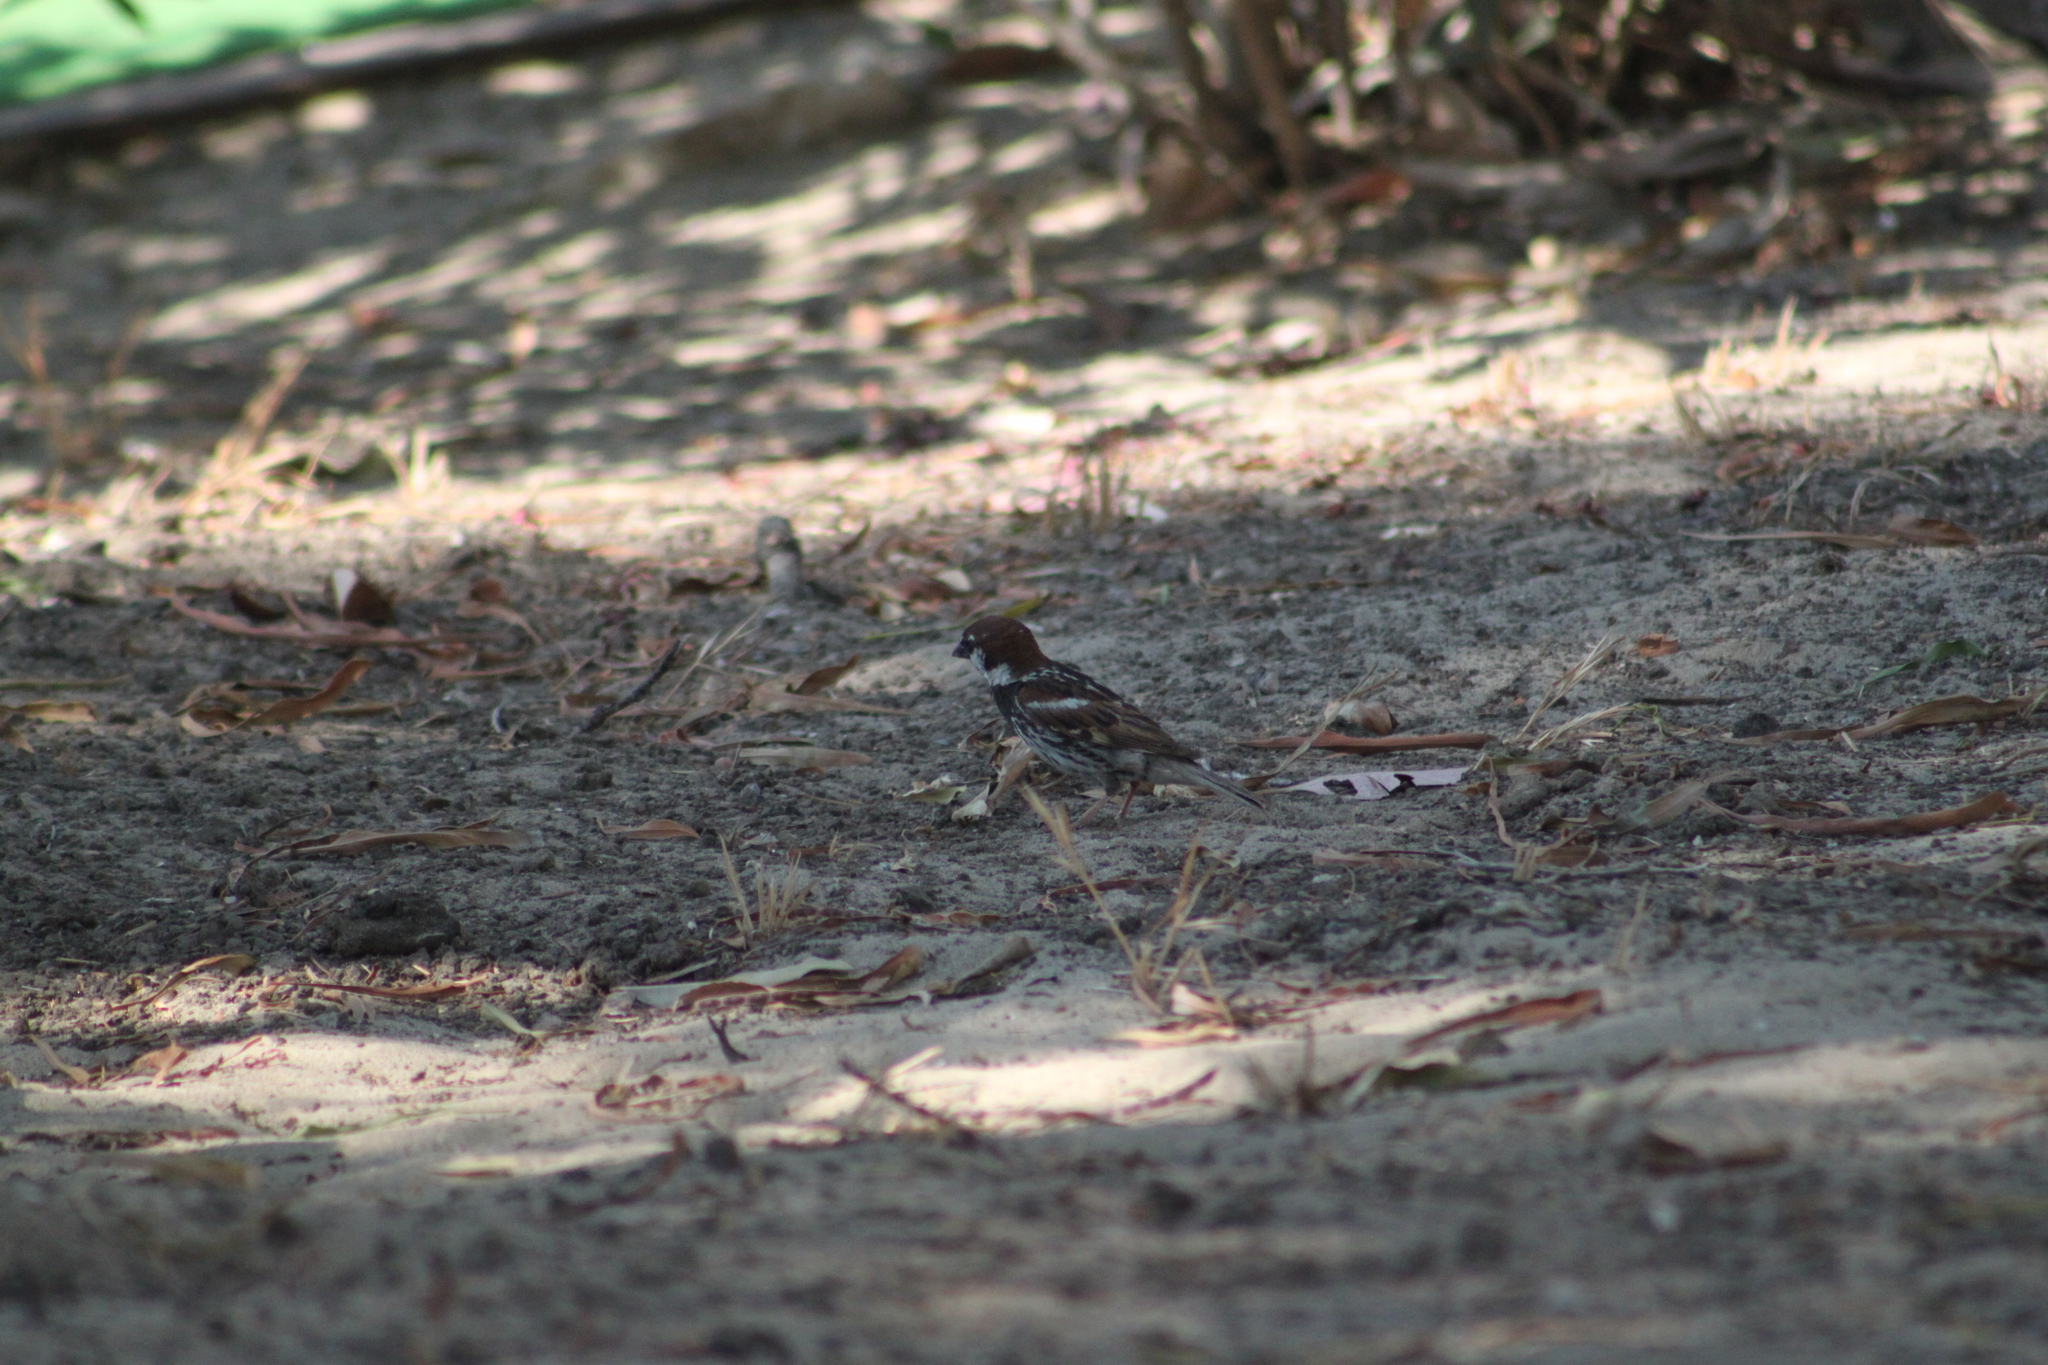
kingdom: Animalia
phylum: Chordata
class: Aves
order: Passeriformes
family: Passeridae
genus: Passer
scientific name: Passer italiae
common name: Italian sparrow
